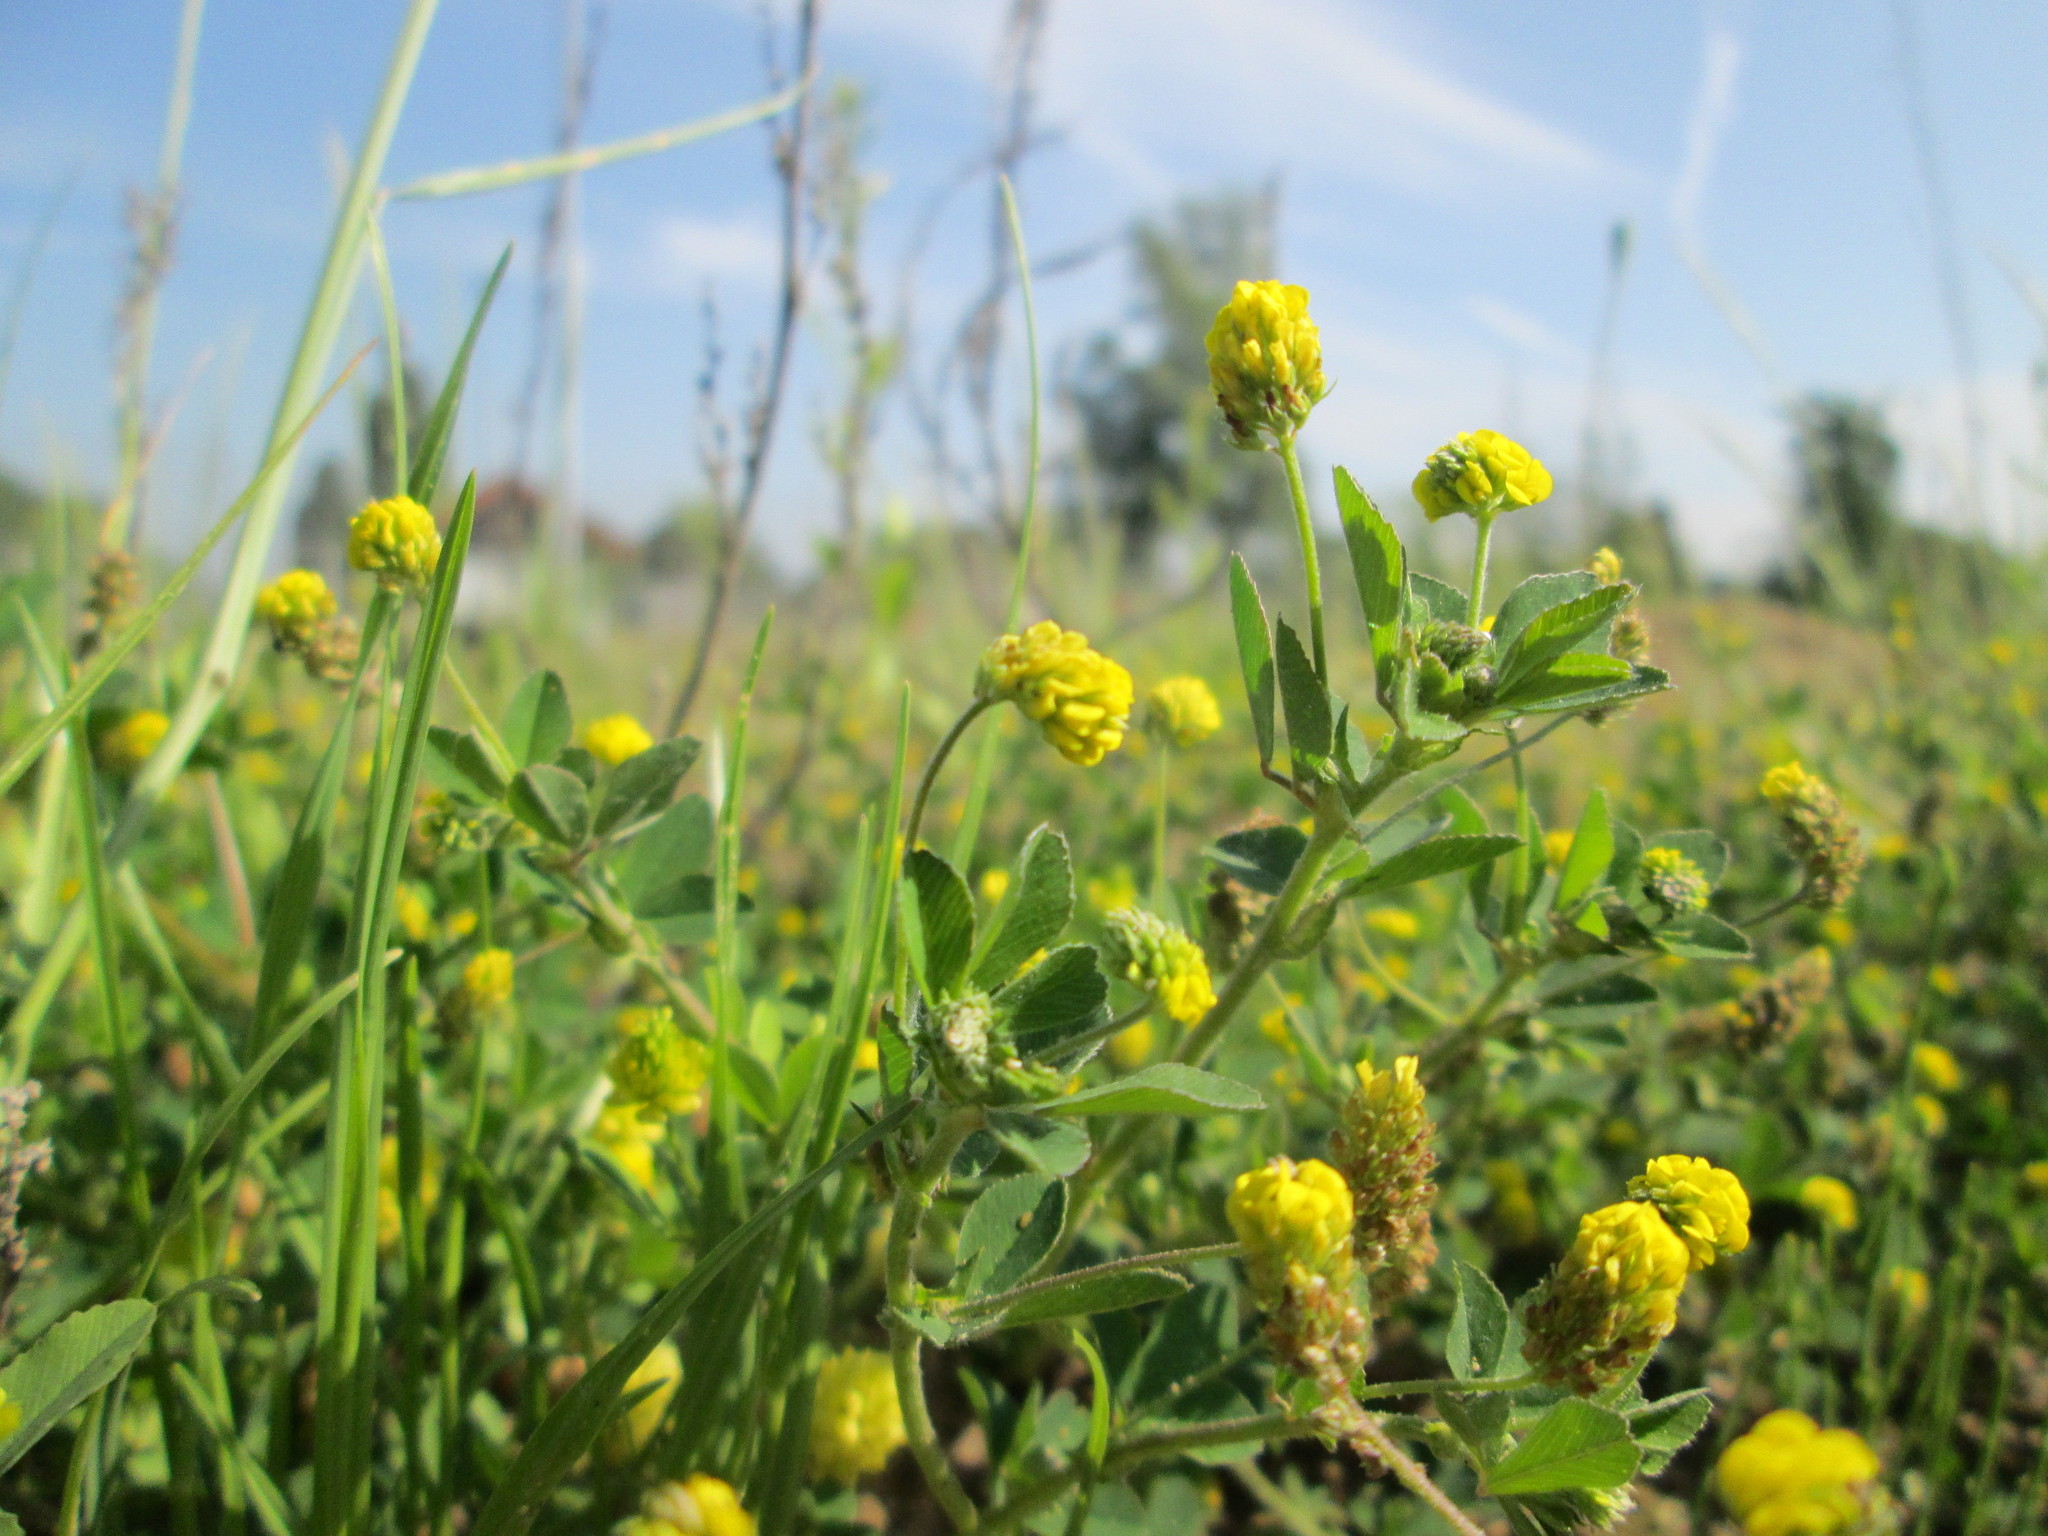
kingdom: Plantae
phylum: Tracheophyta
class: Magnoliopsida
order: Fabales
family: Fabaceae
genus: Medicago
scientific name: Medicago lupulina
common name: Black medick
